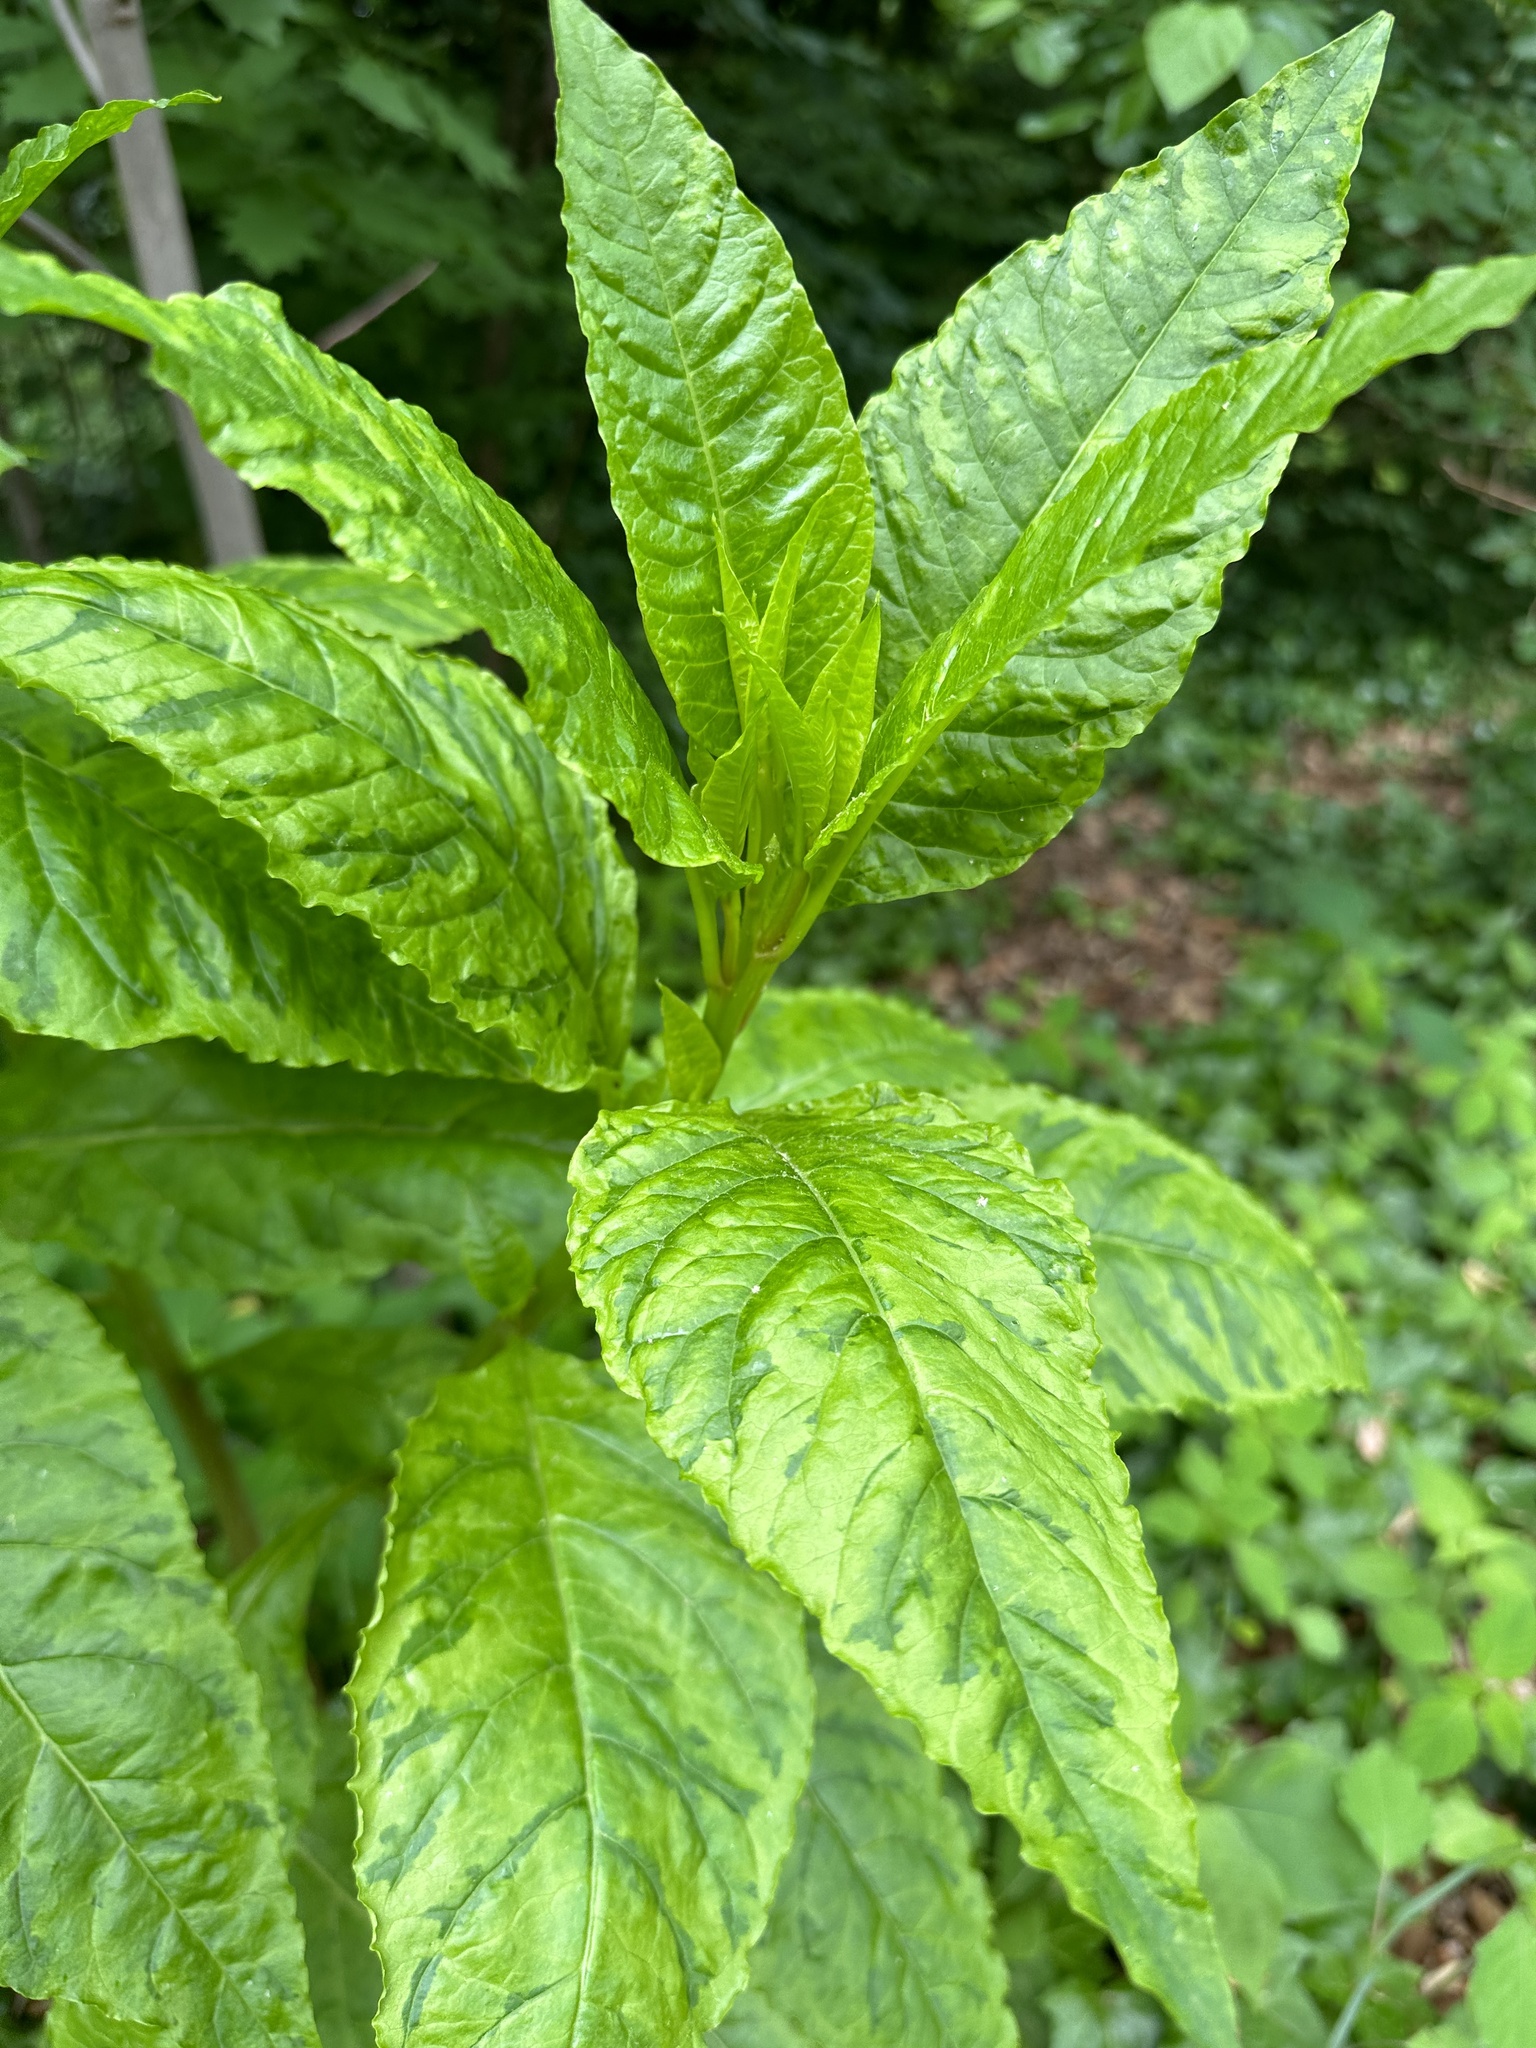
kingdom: Viruses
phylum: Pisuviricota
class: Stelpaviricetes
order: Patatavirales
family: Potyviridae
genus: Potyvirus
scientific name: Potyvirus Pokeweed mosaic virus
